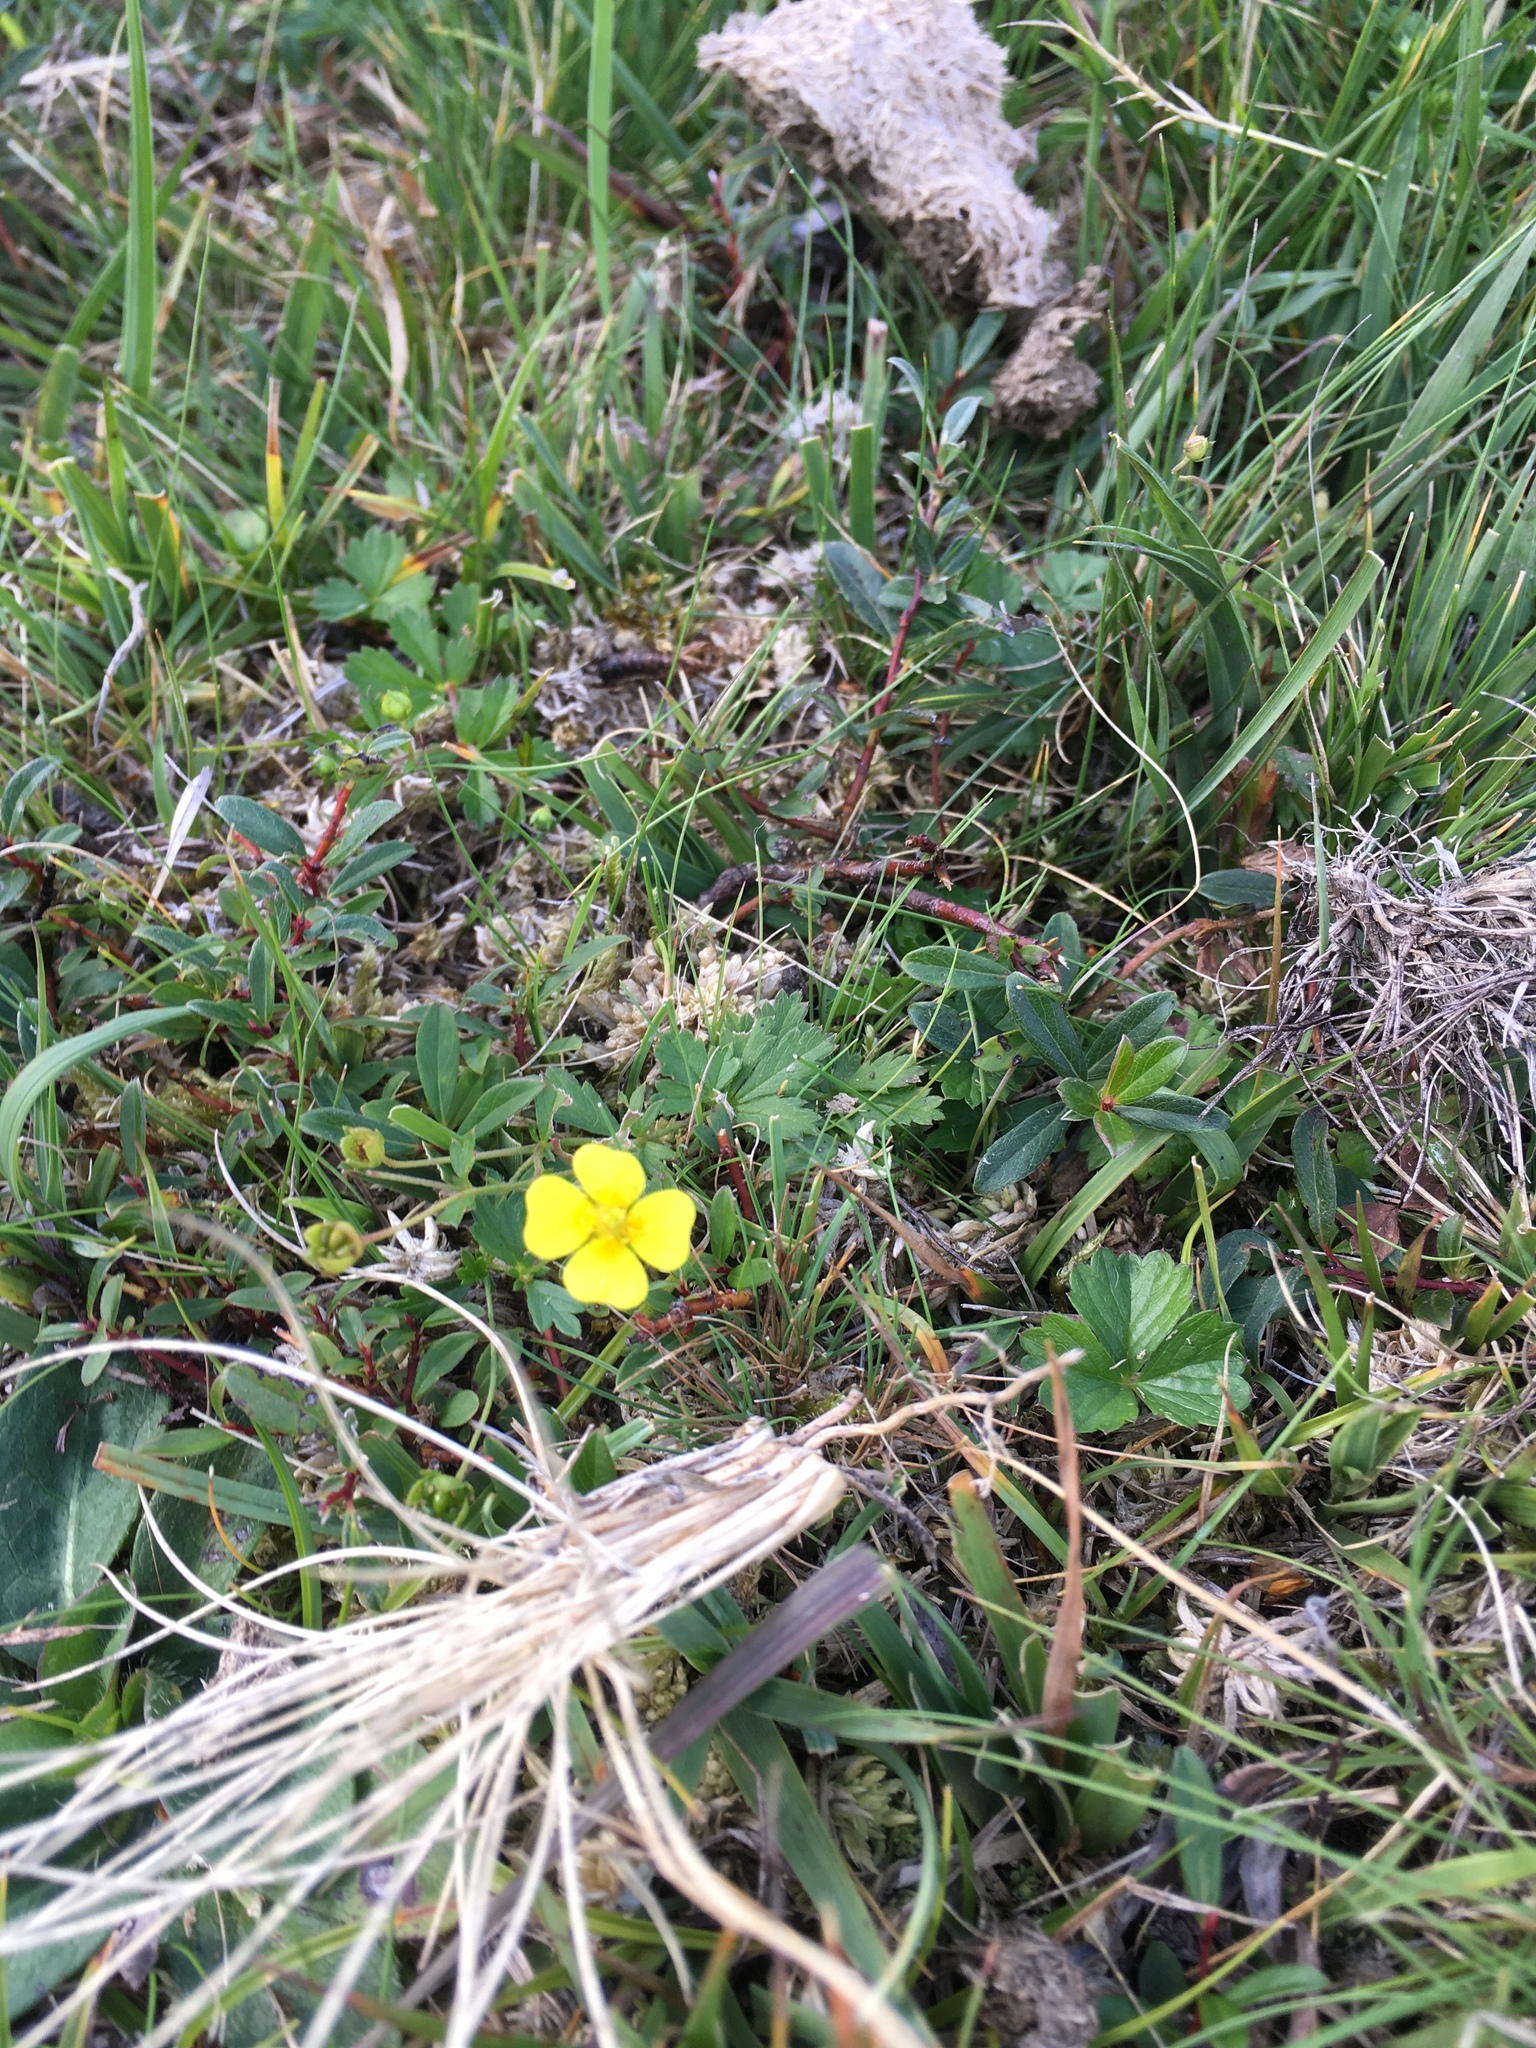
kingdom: Plantae
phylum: Tracheophyta
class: Magnoliopsida
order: Rosales
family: Rosaceae
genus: Potentilla
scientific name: Potentilla erecta
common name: Tormentil
